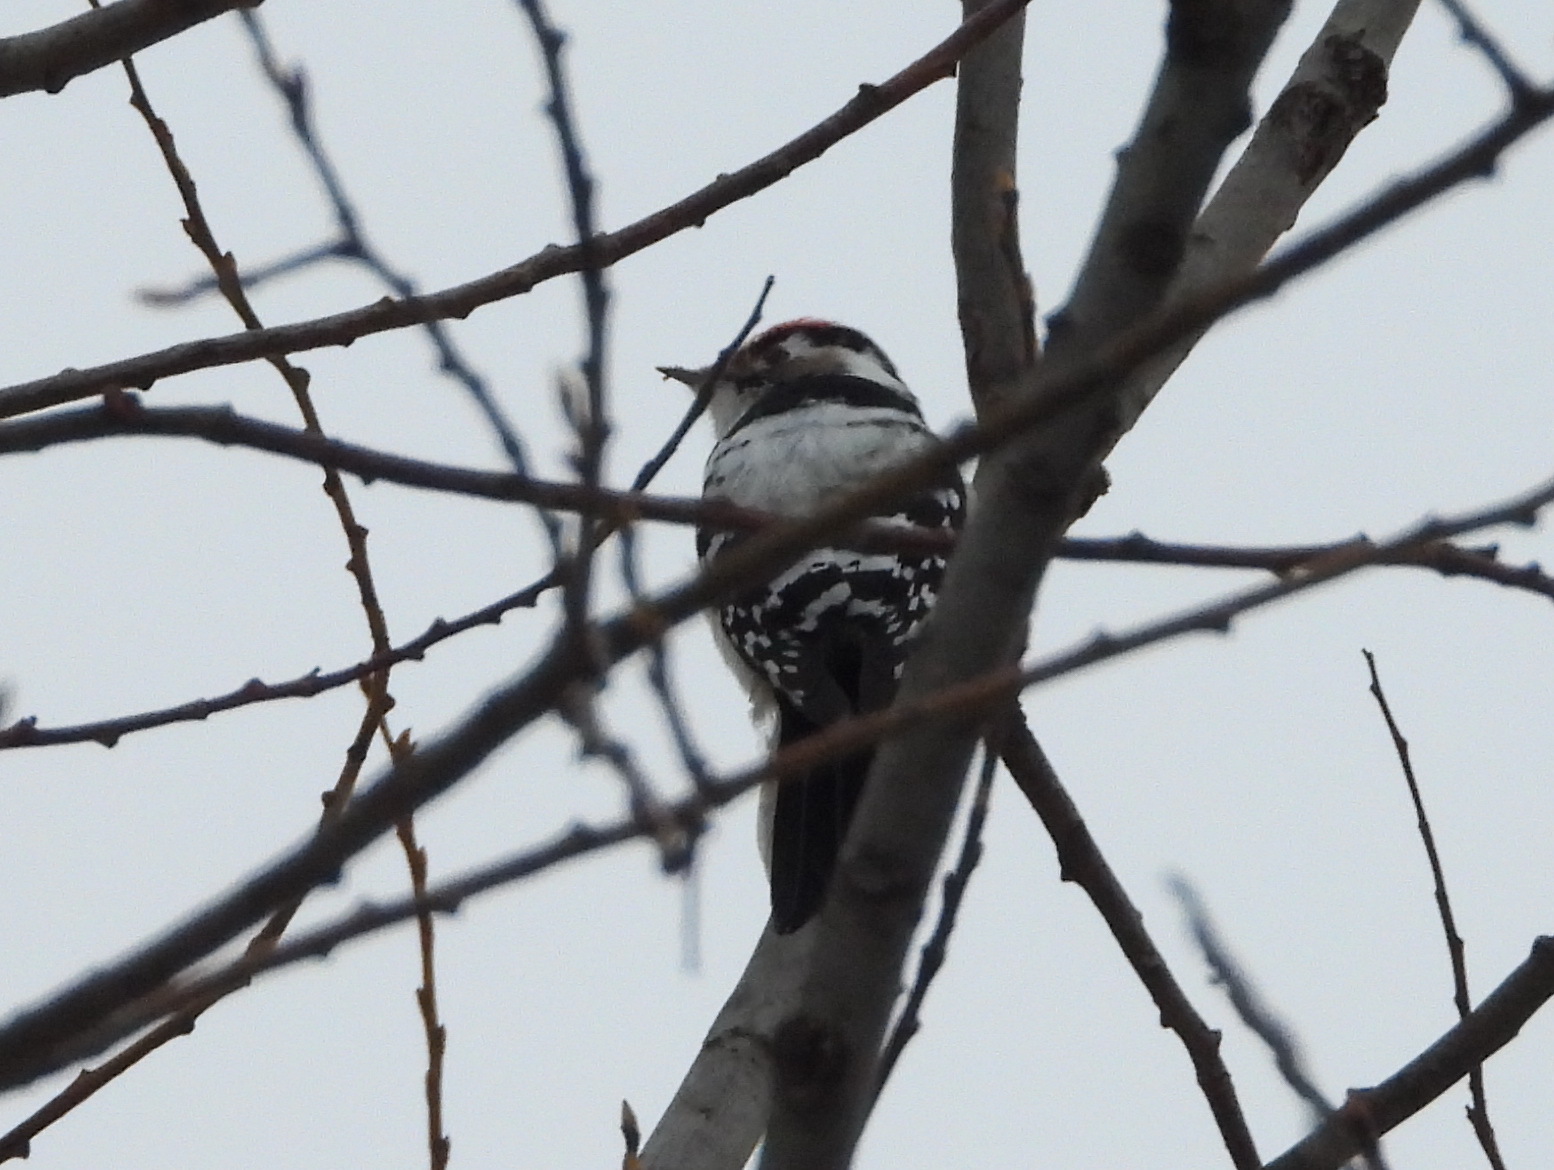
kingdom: Animalia
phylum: Chordata
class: Aves
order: Piciformes
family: Picidae
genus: Dryobates
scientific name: Dryobates minor
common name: Lesser spotted woodpecker
